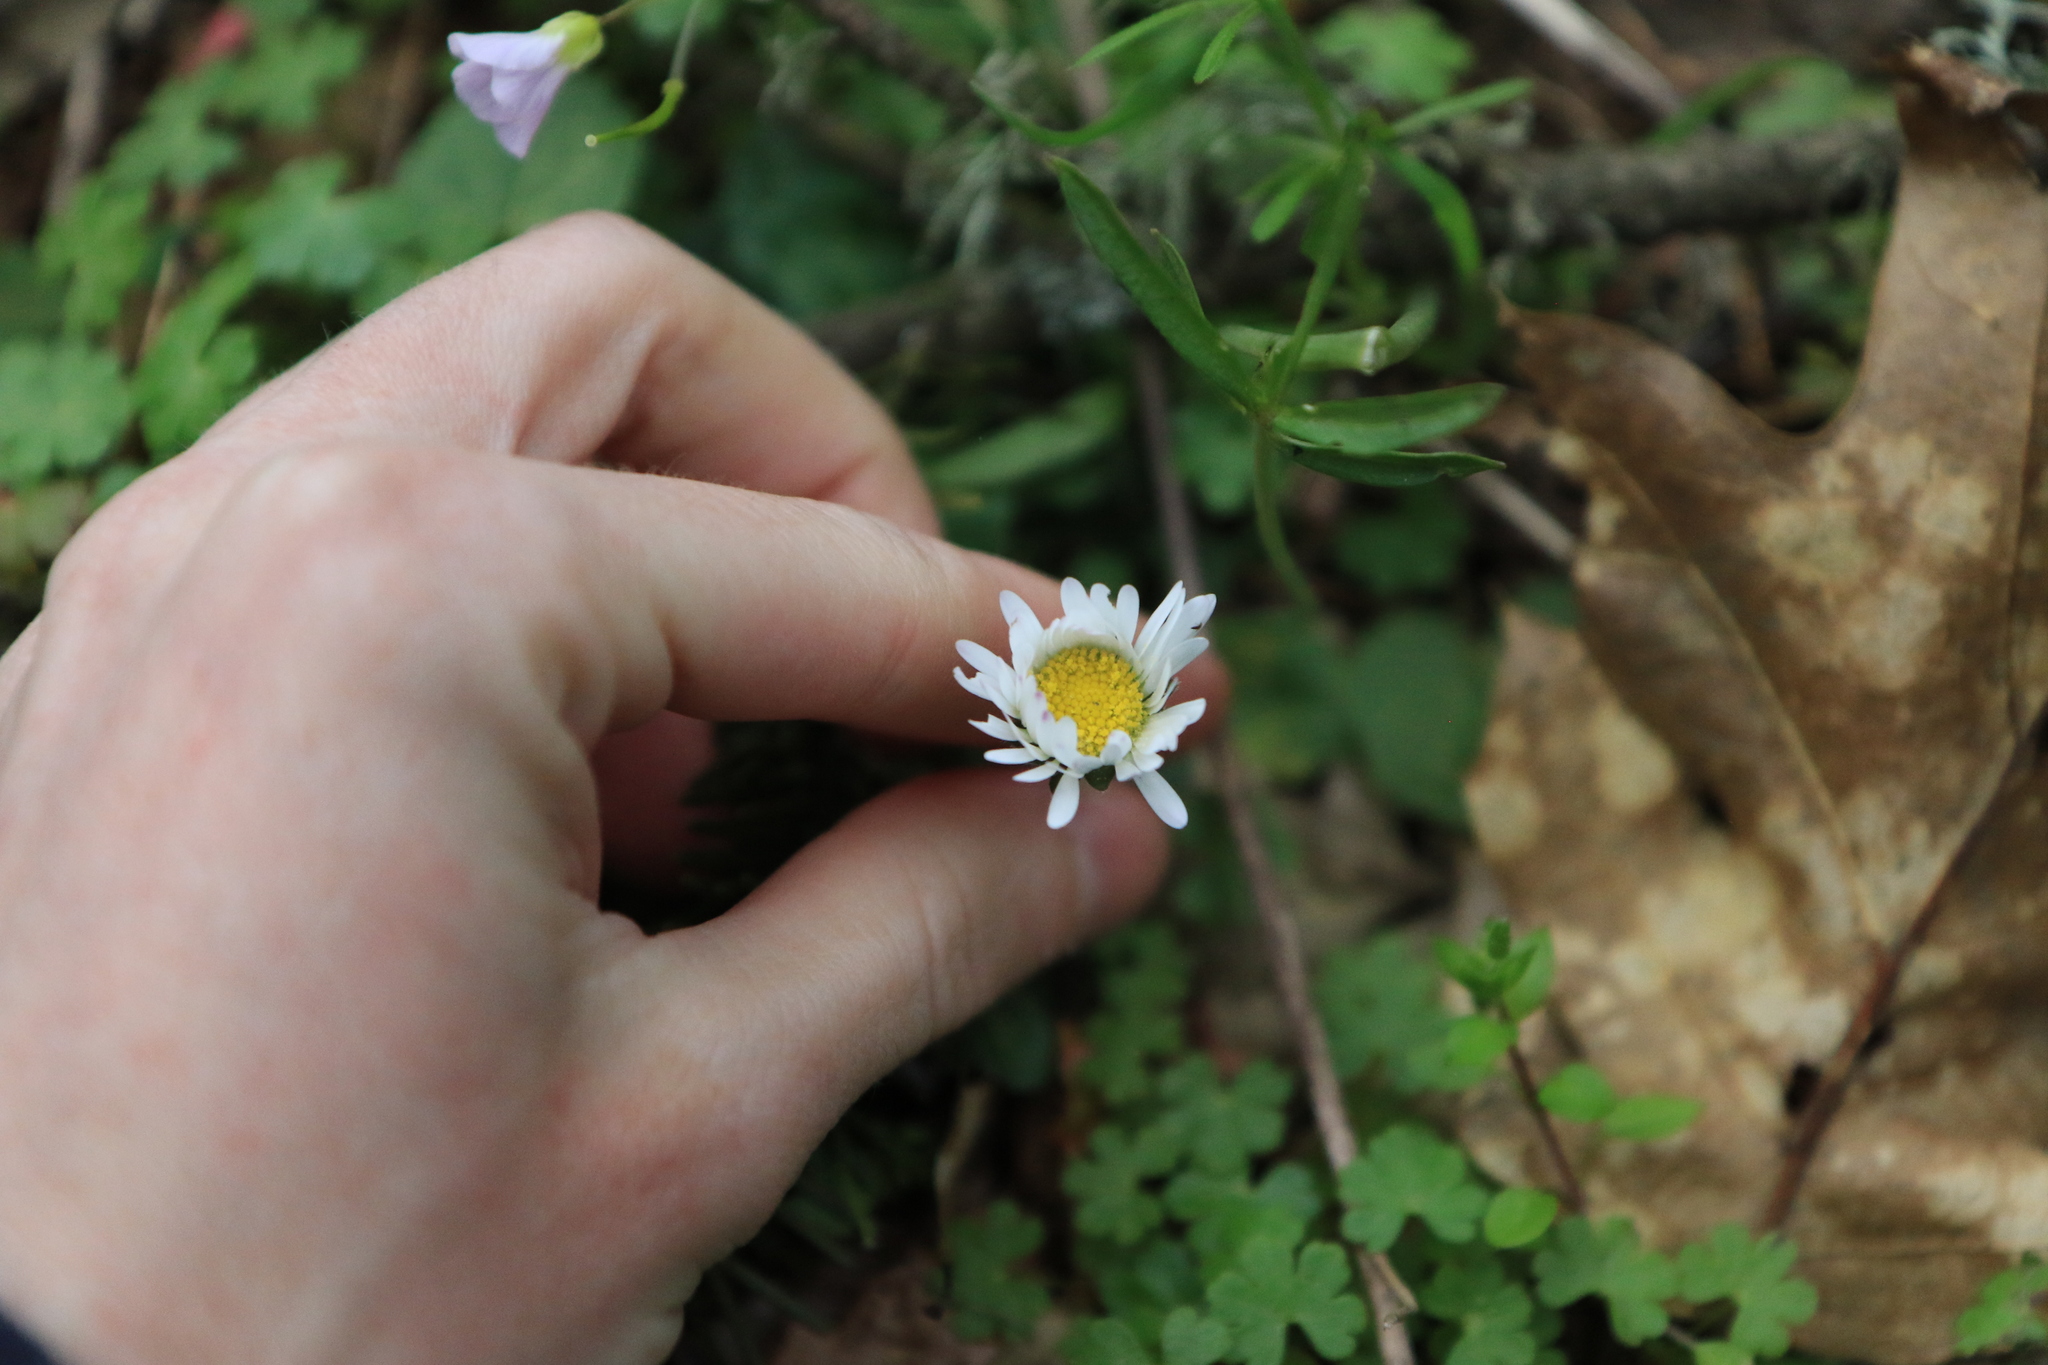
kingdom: Plantae
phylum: Tracheophyta
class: Magnoliopsida
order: Asterales
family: Asteraceae
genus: Bellis
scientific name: Bellis perennis
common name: Lawndaisy
